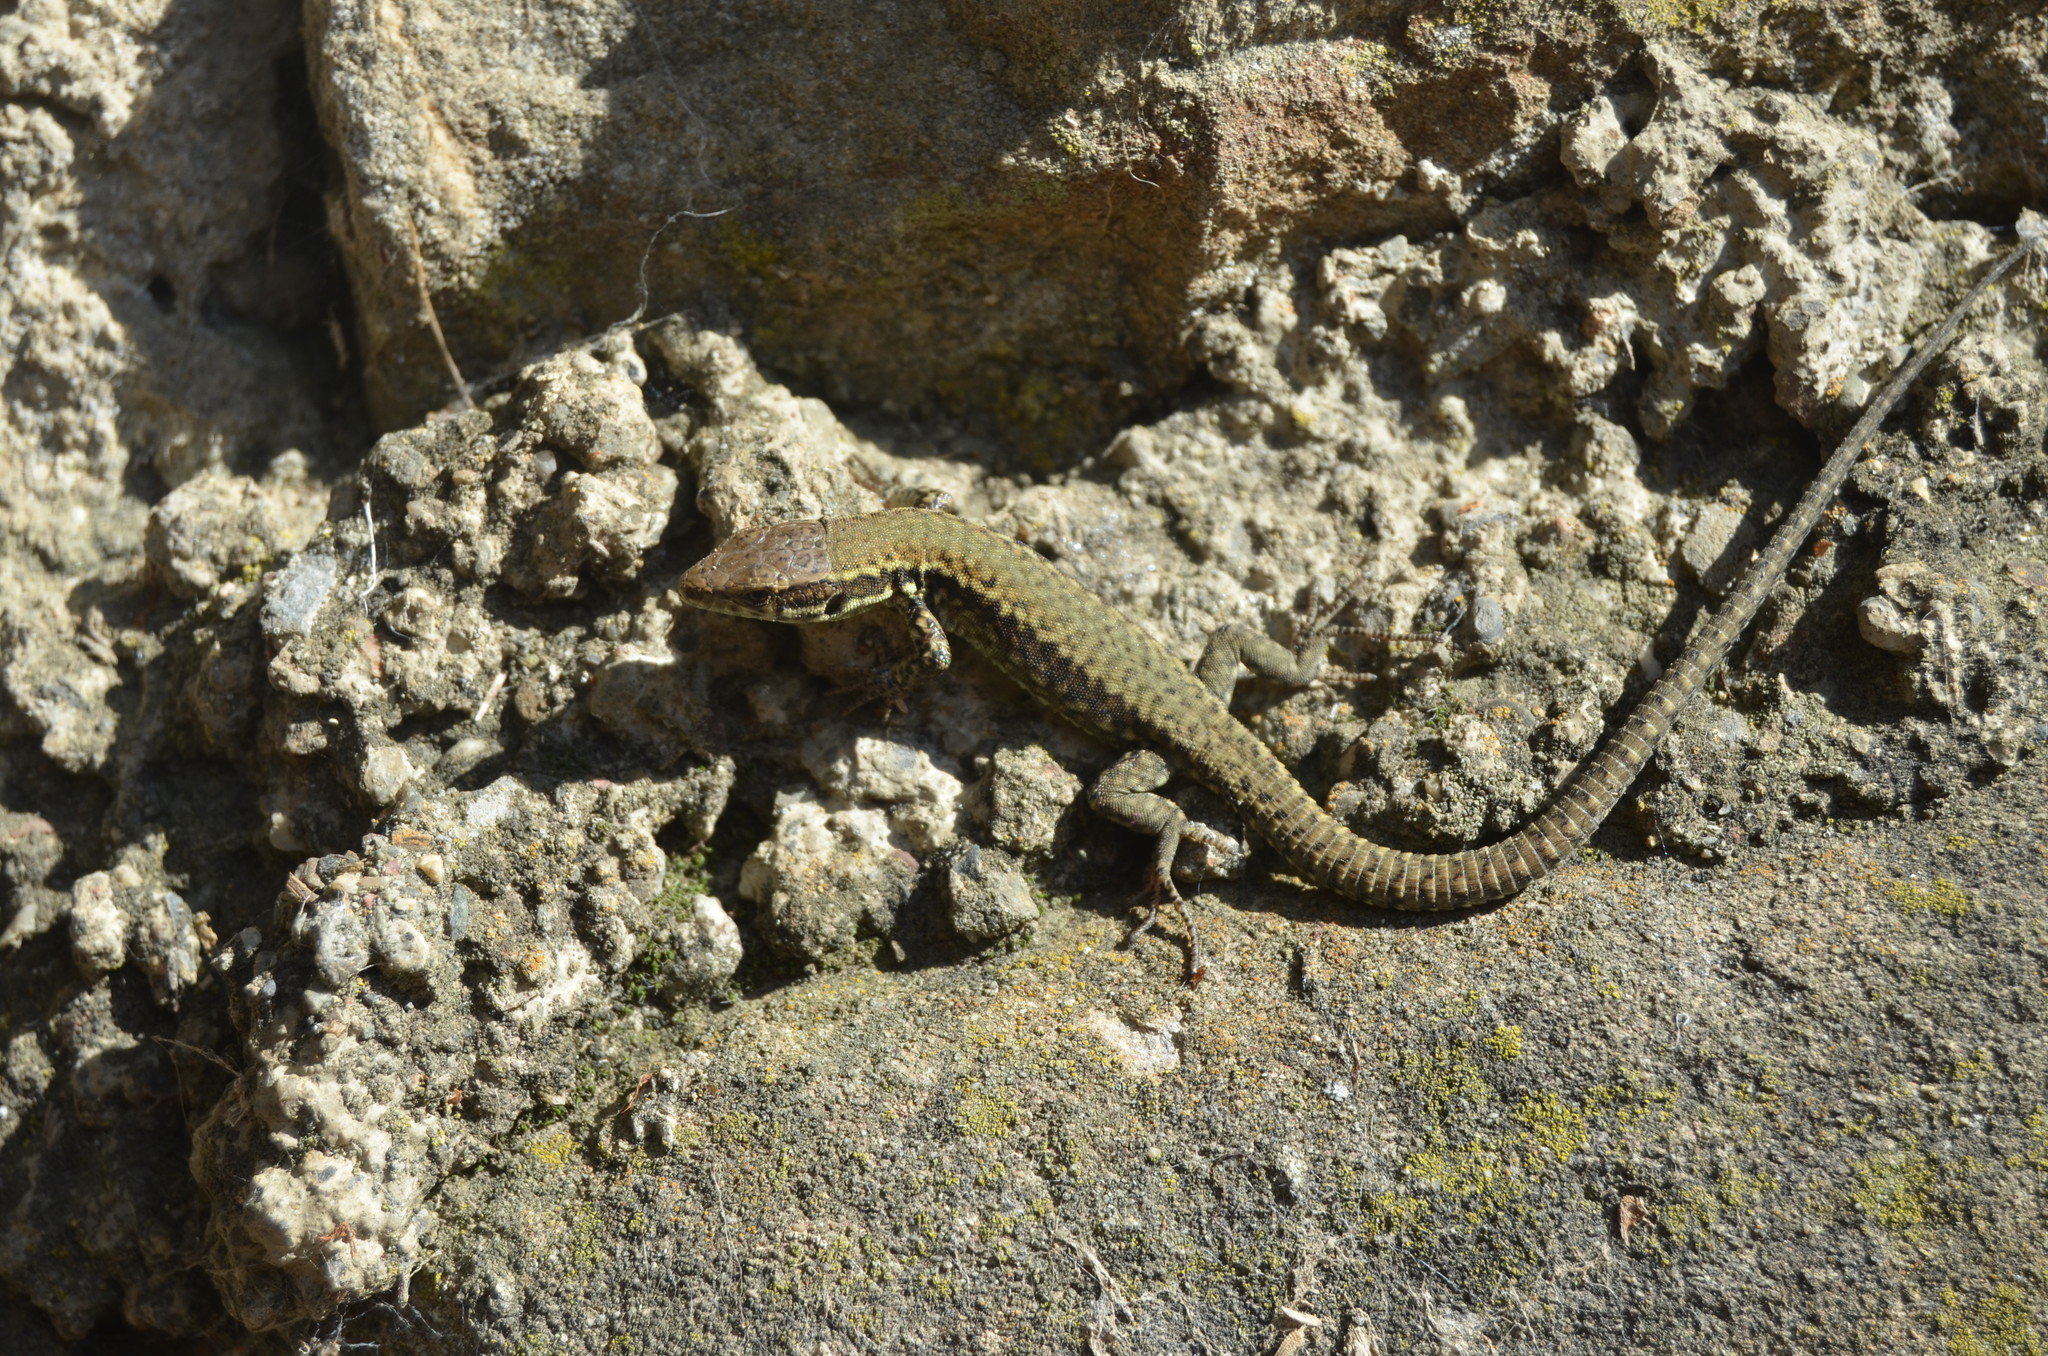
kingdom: Animalia
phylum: Chordata
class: Squamata
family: Lacertidae
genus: Podarcis
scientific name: Podarcis muralis
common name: Common wall lizard
